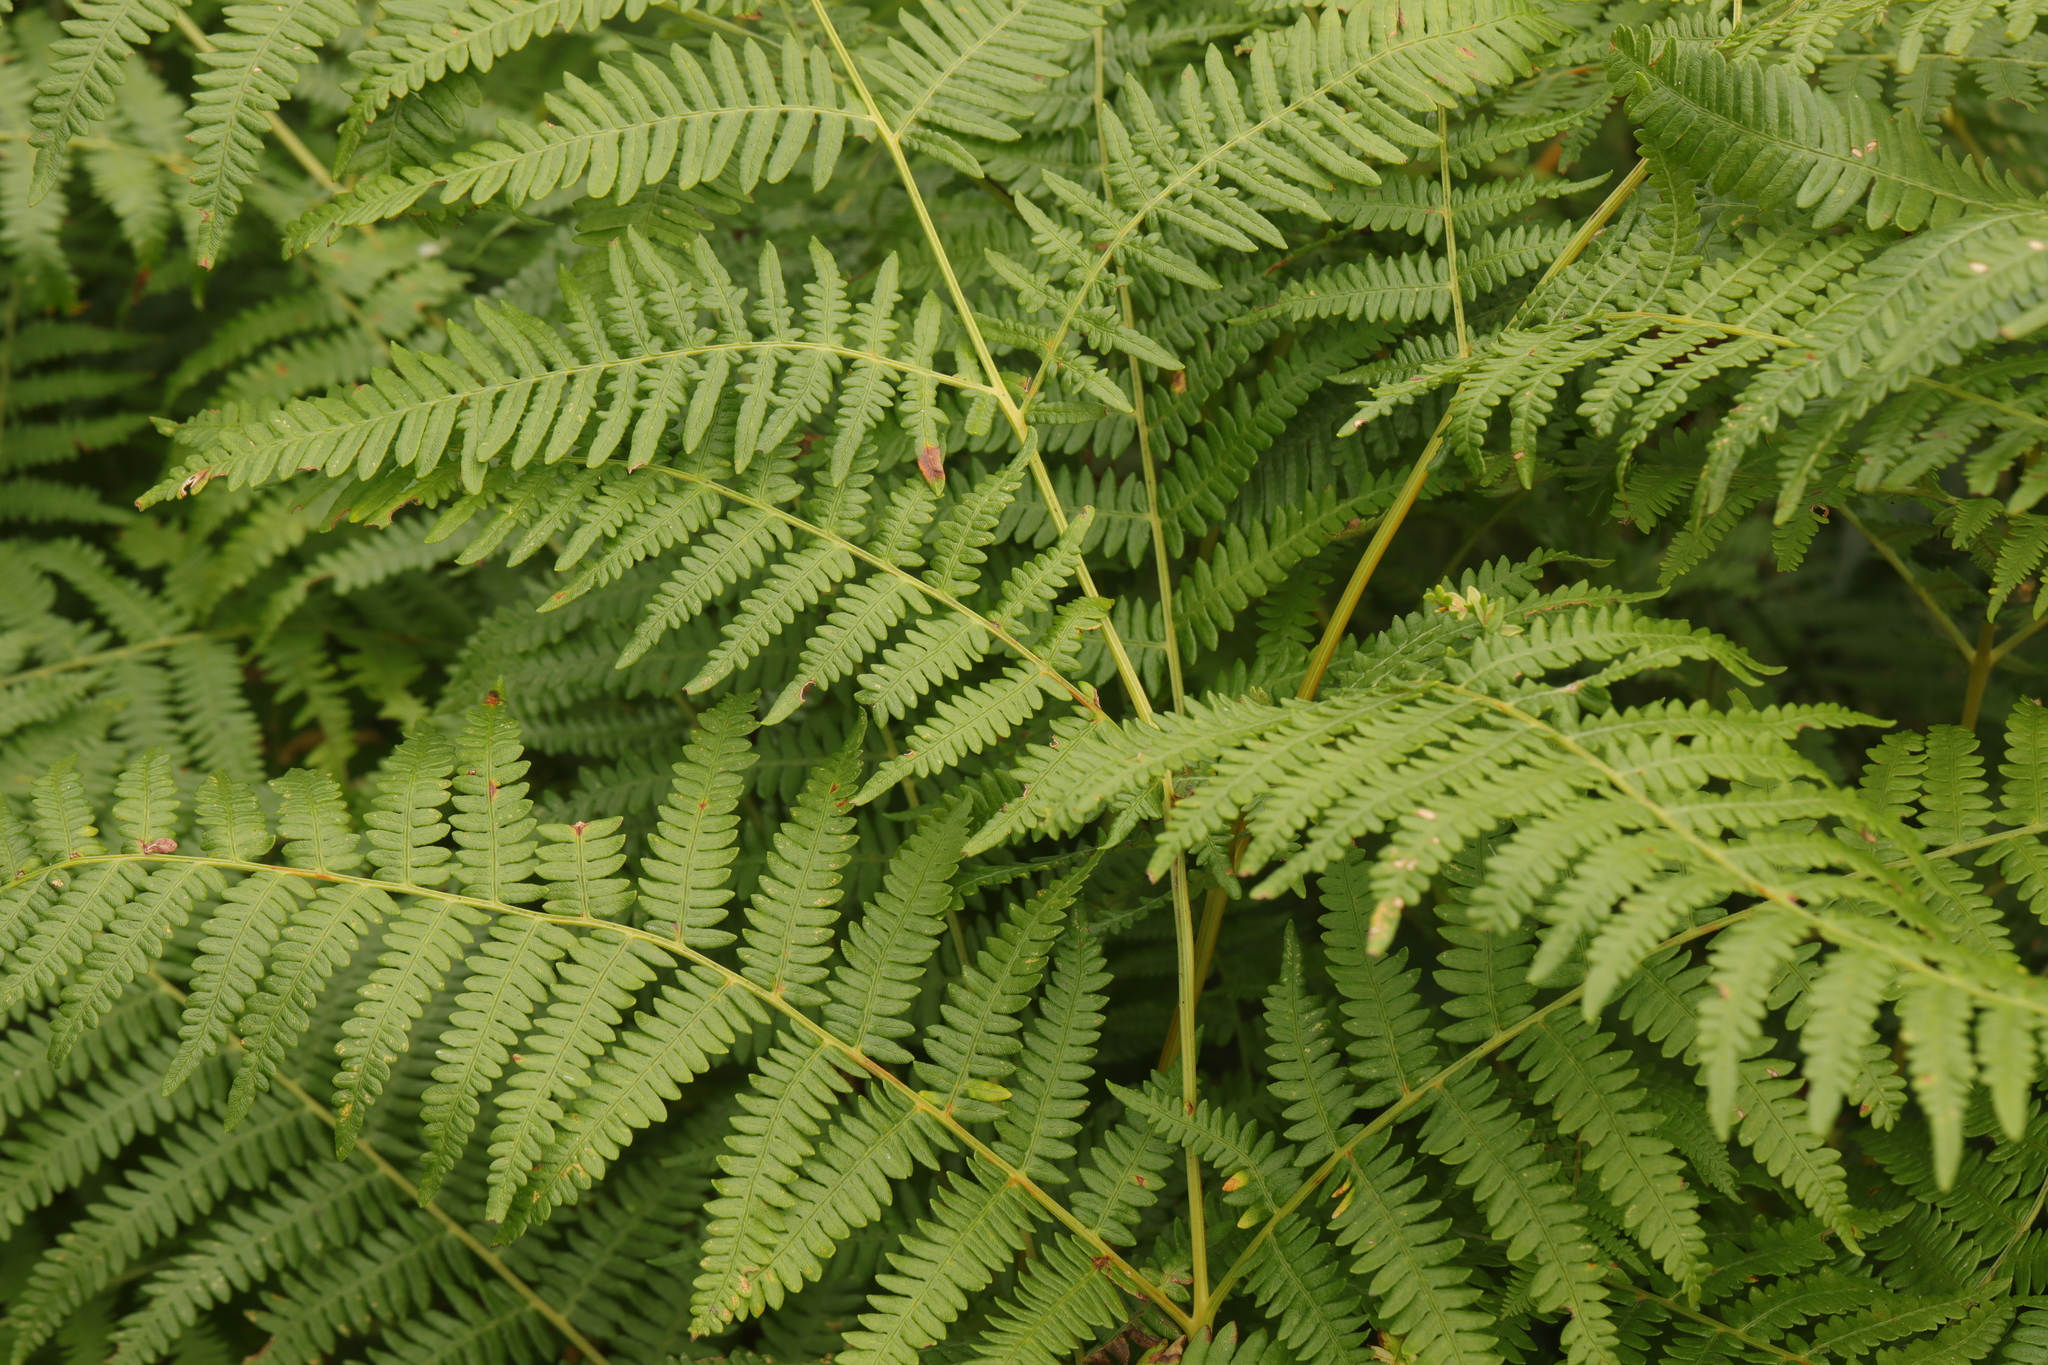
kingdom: Plantae
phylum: Tracheophyta
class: Polypodiopsida
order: Polypodiales
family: Dennstaedtiaceae
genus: Pteridium
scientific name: Pteridium aquilinum
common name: Bracken
